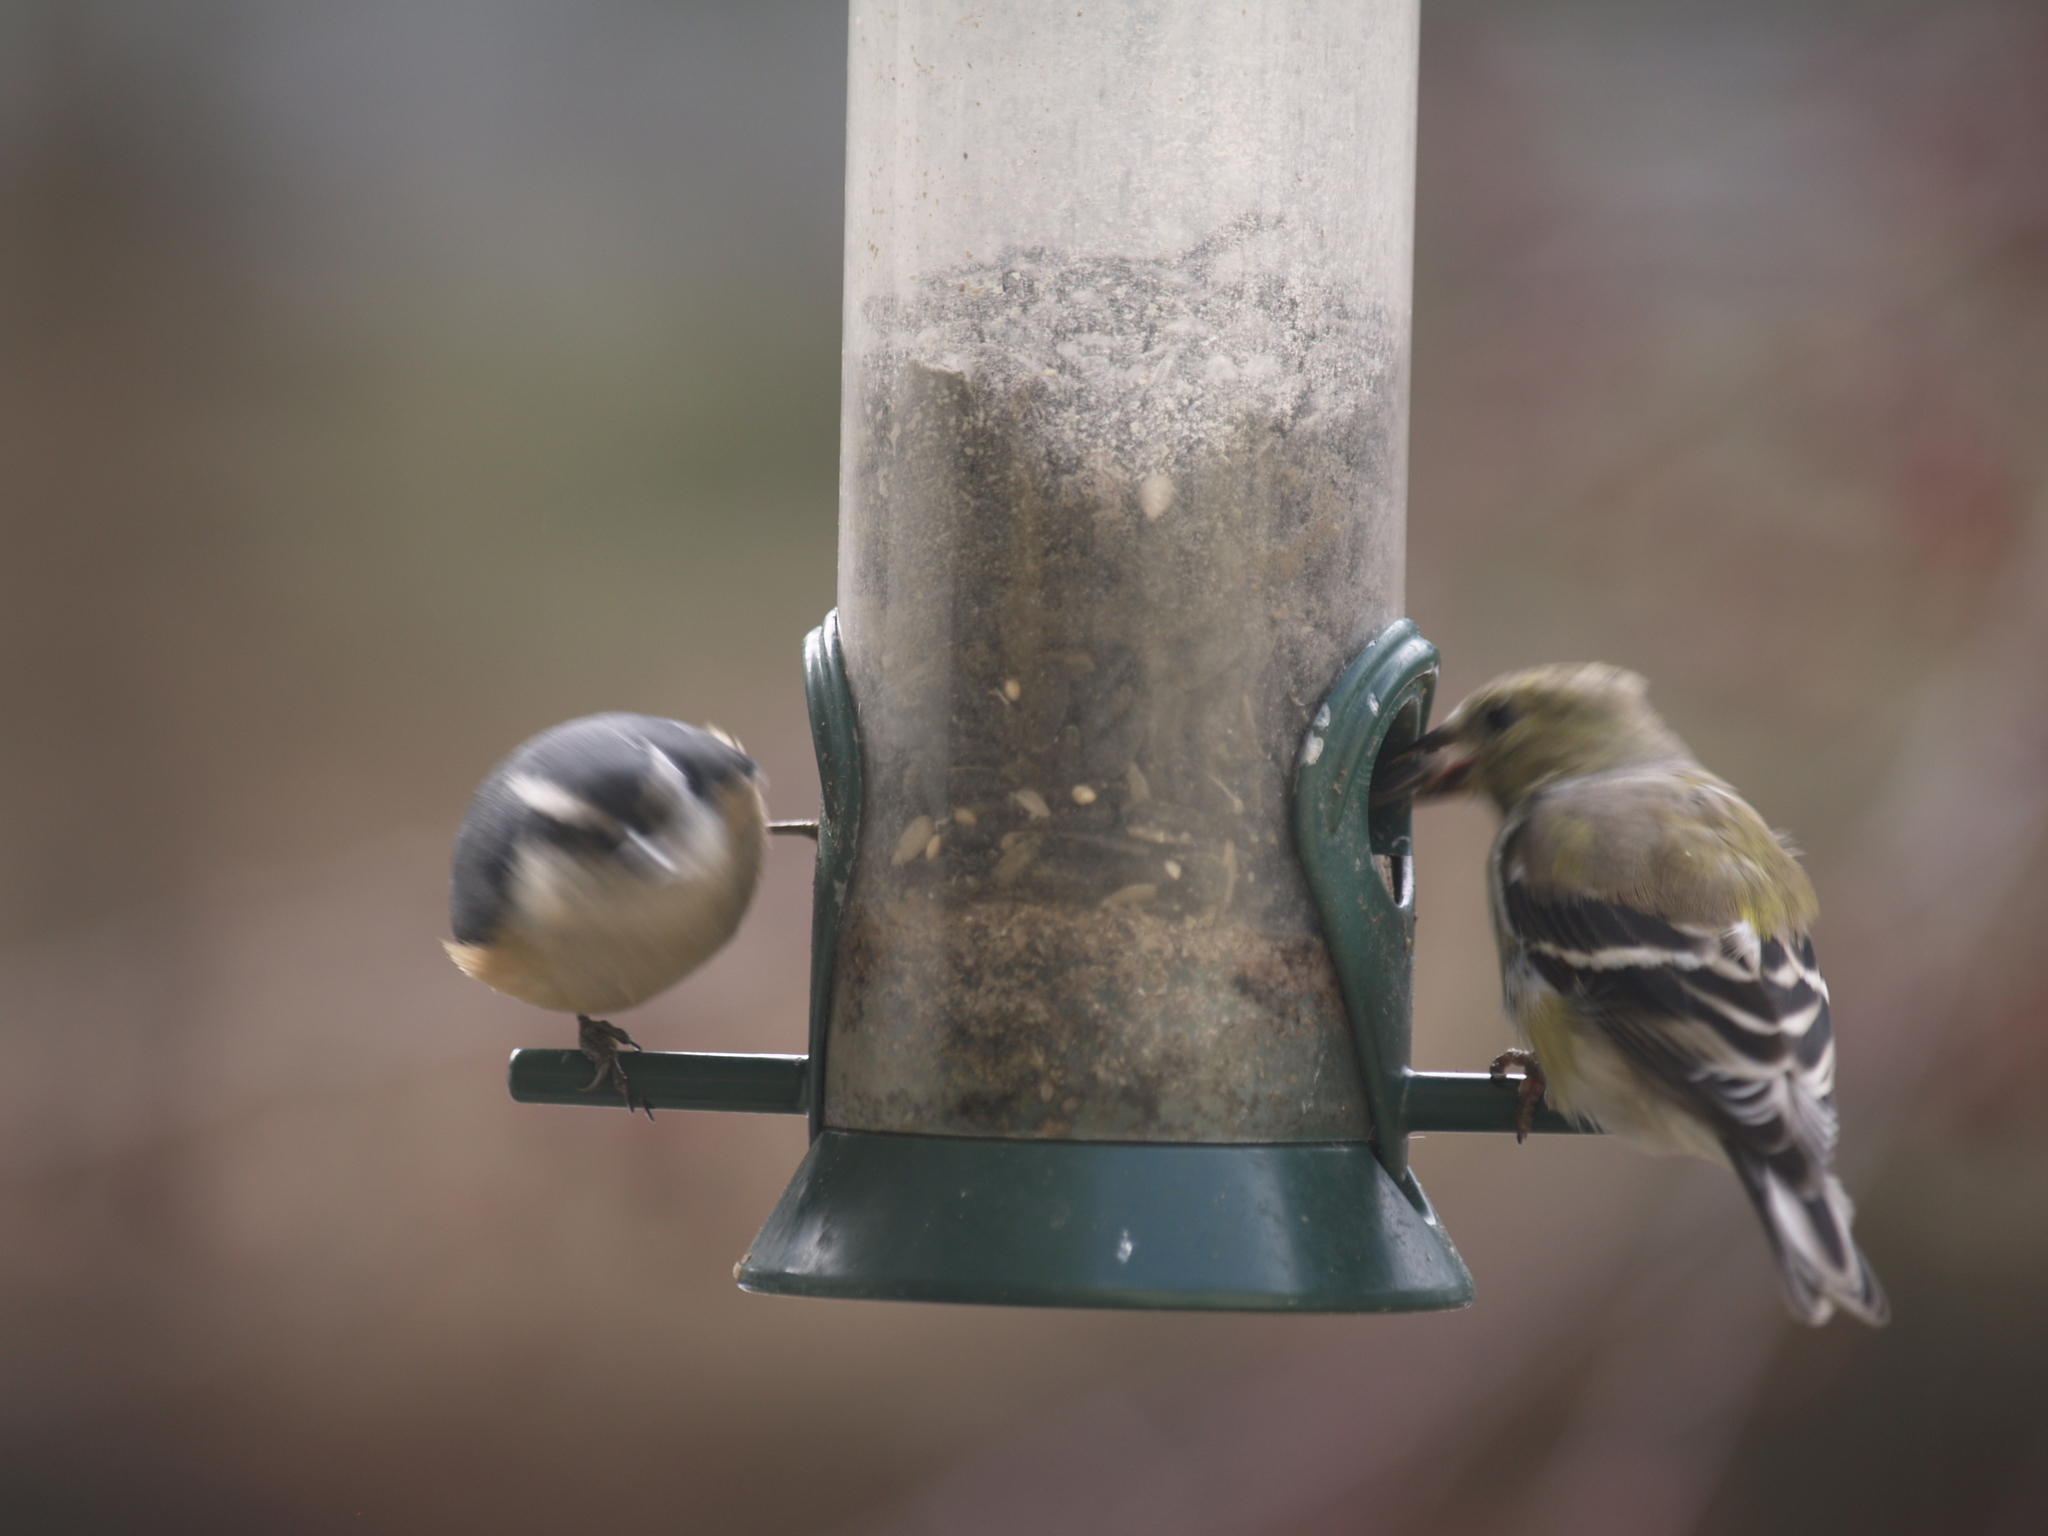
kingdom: Animalia
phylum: Chordata
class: Aves
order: Passeriformes
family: Fringillidae
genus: Spinus
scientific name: Spinus tristis
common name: American goldfinch
